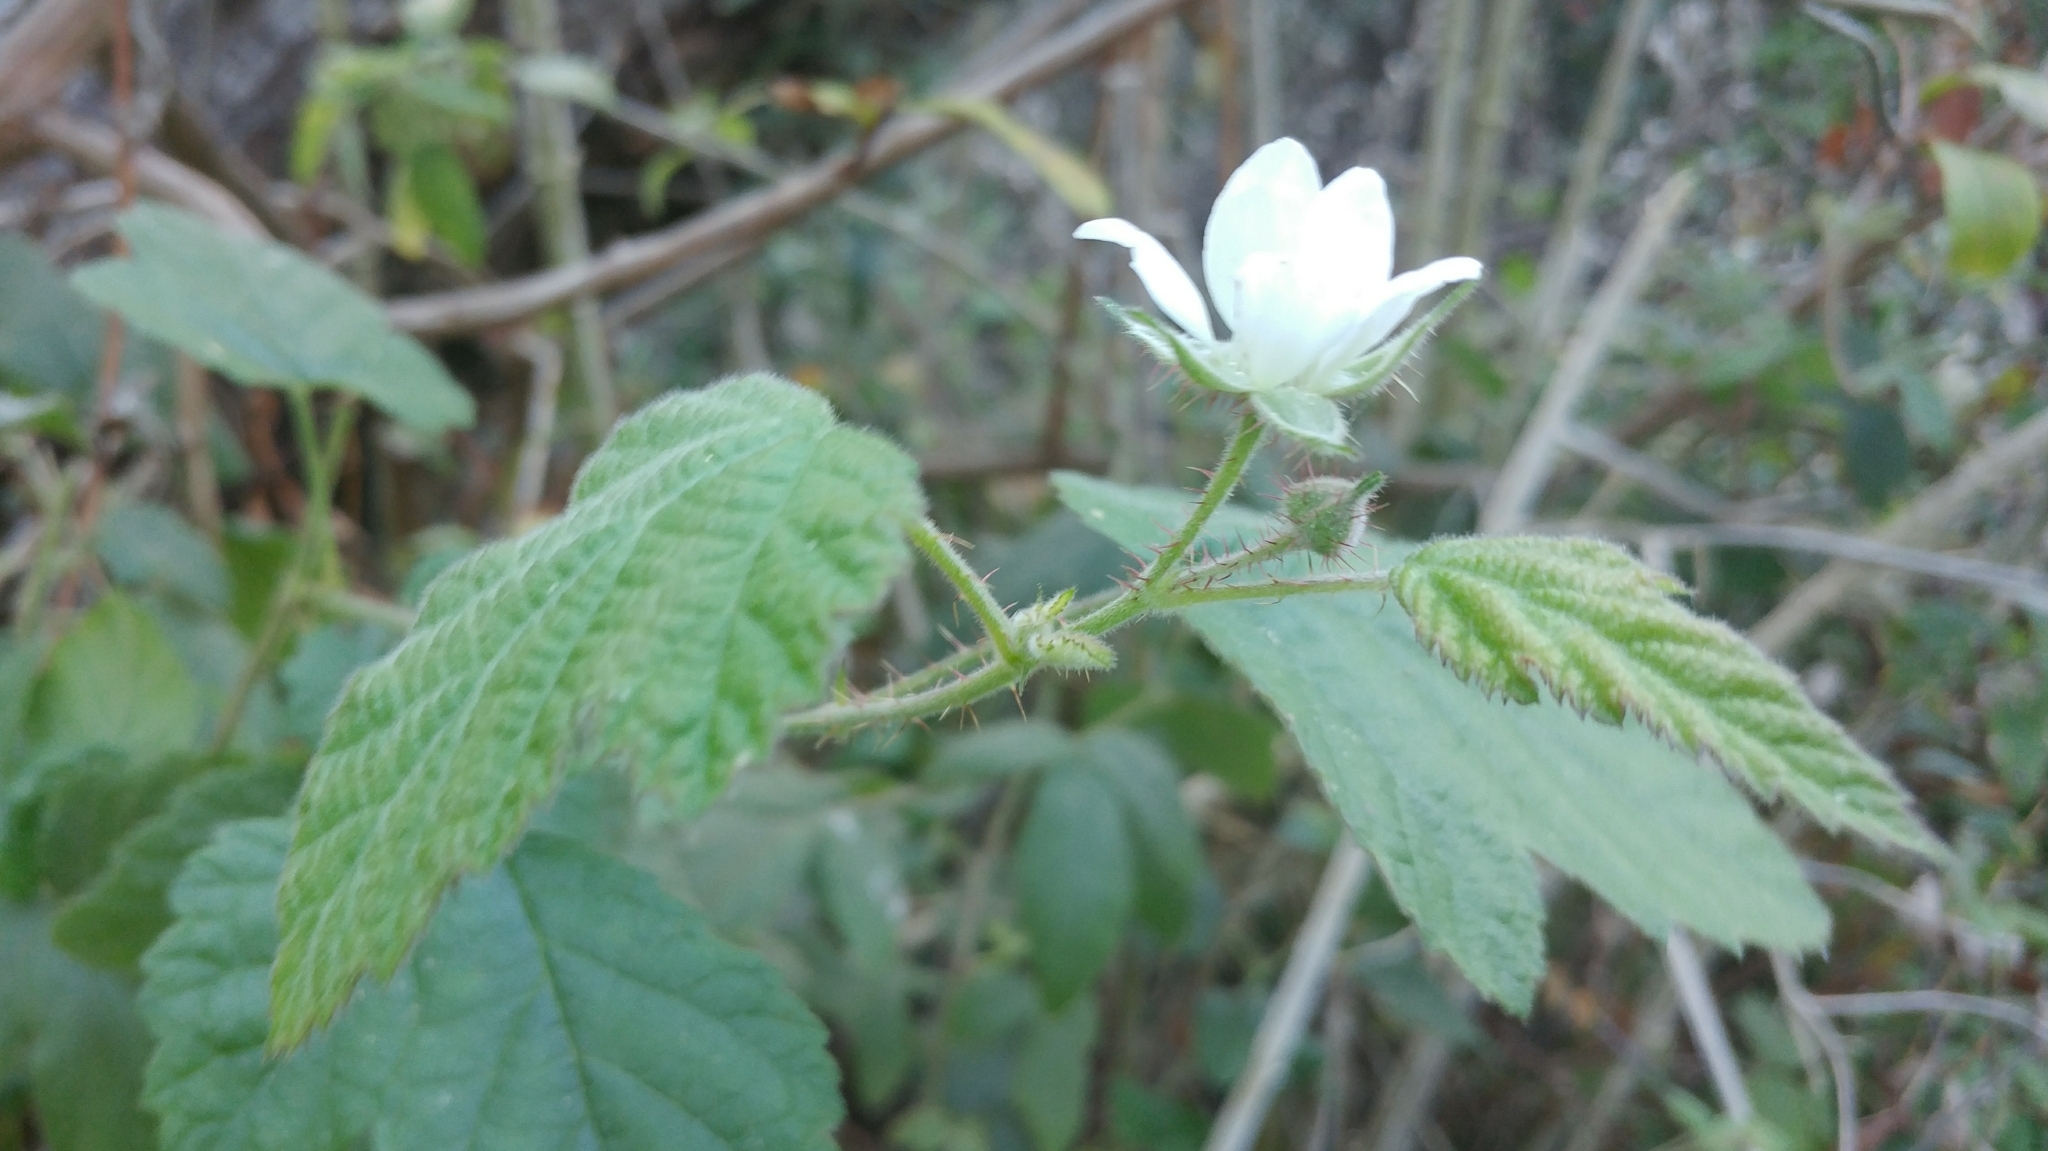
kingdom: Plantae
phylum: Tracheophyta
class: Magnoliopsida
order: Rosales
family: Rosaceae
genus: Rubus
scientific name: Rubus ursinus
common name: Pacific blackberry
